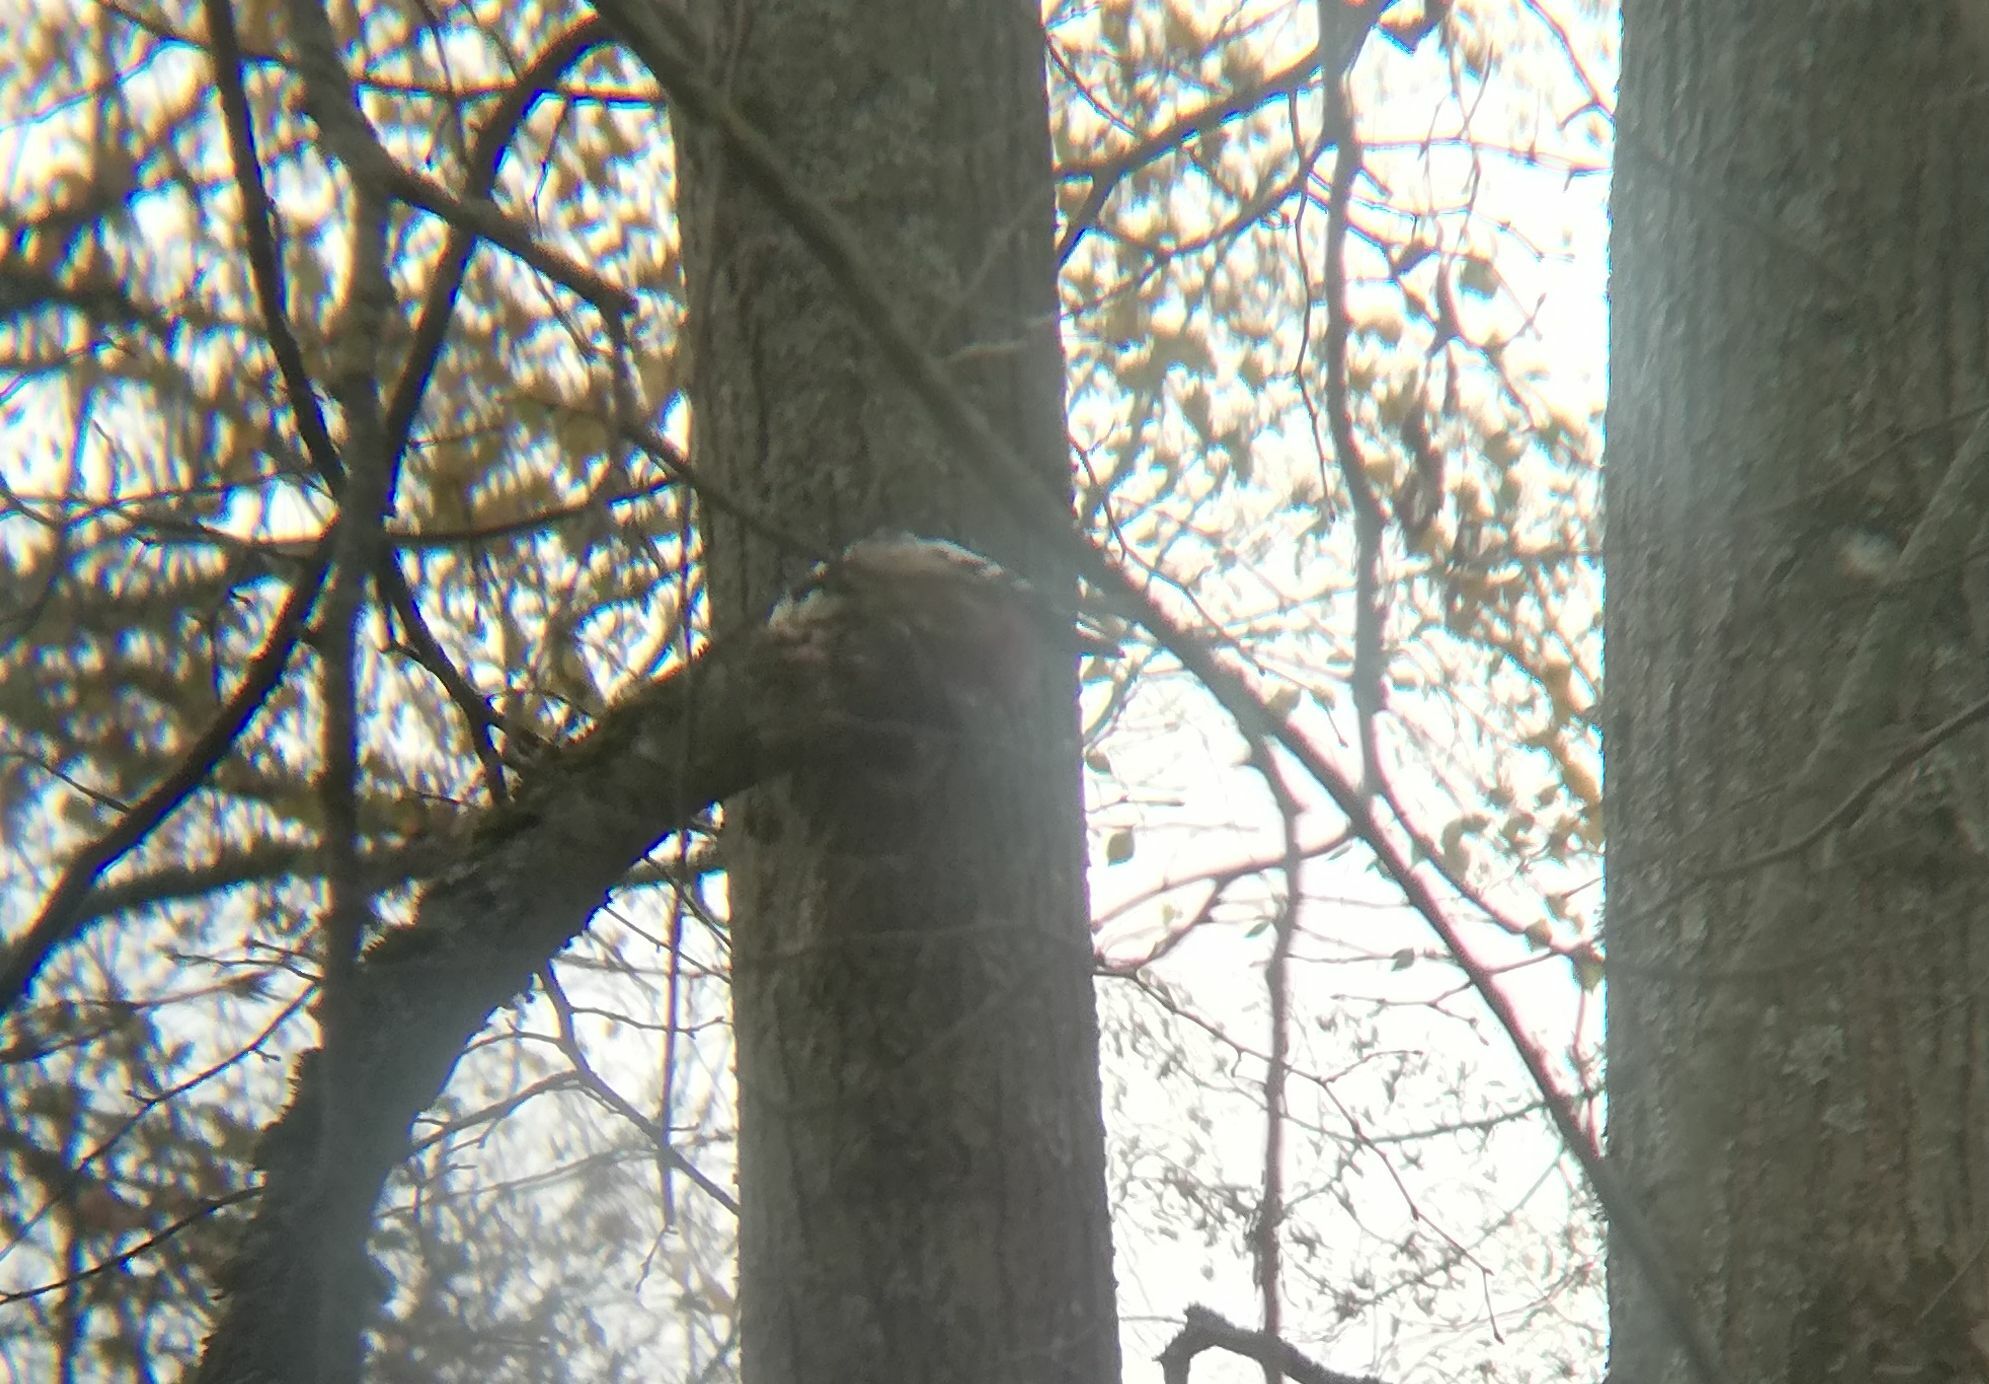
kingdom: Animalia
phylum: Chordata
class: Aves
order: Piciformes
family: Picidae
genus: Dendrocoptes
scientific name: Dendrocoptes medius
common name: Middle spotted woodpecker
